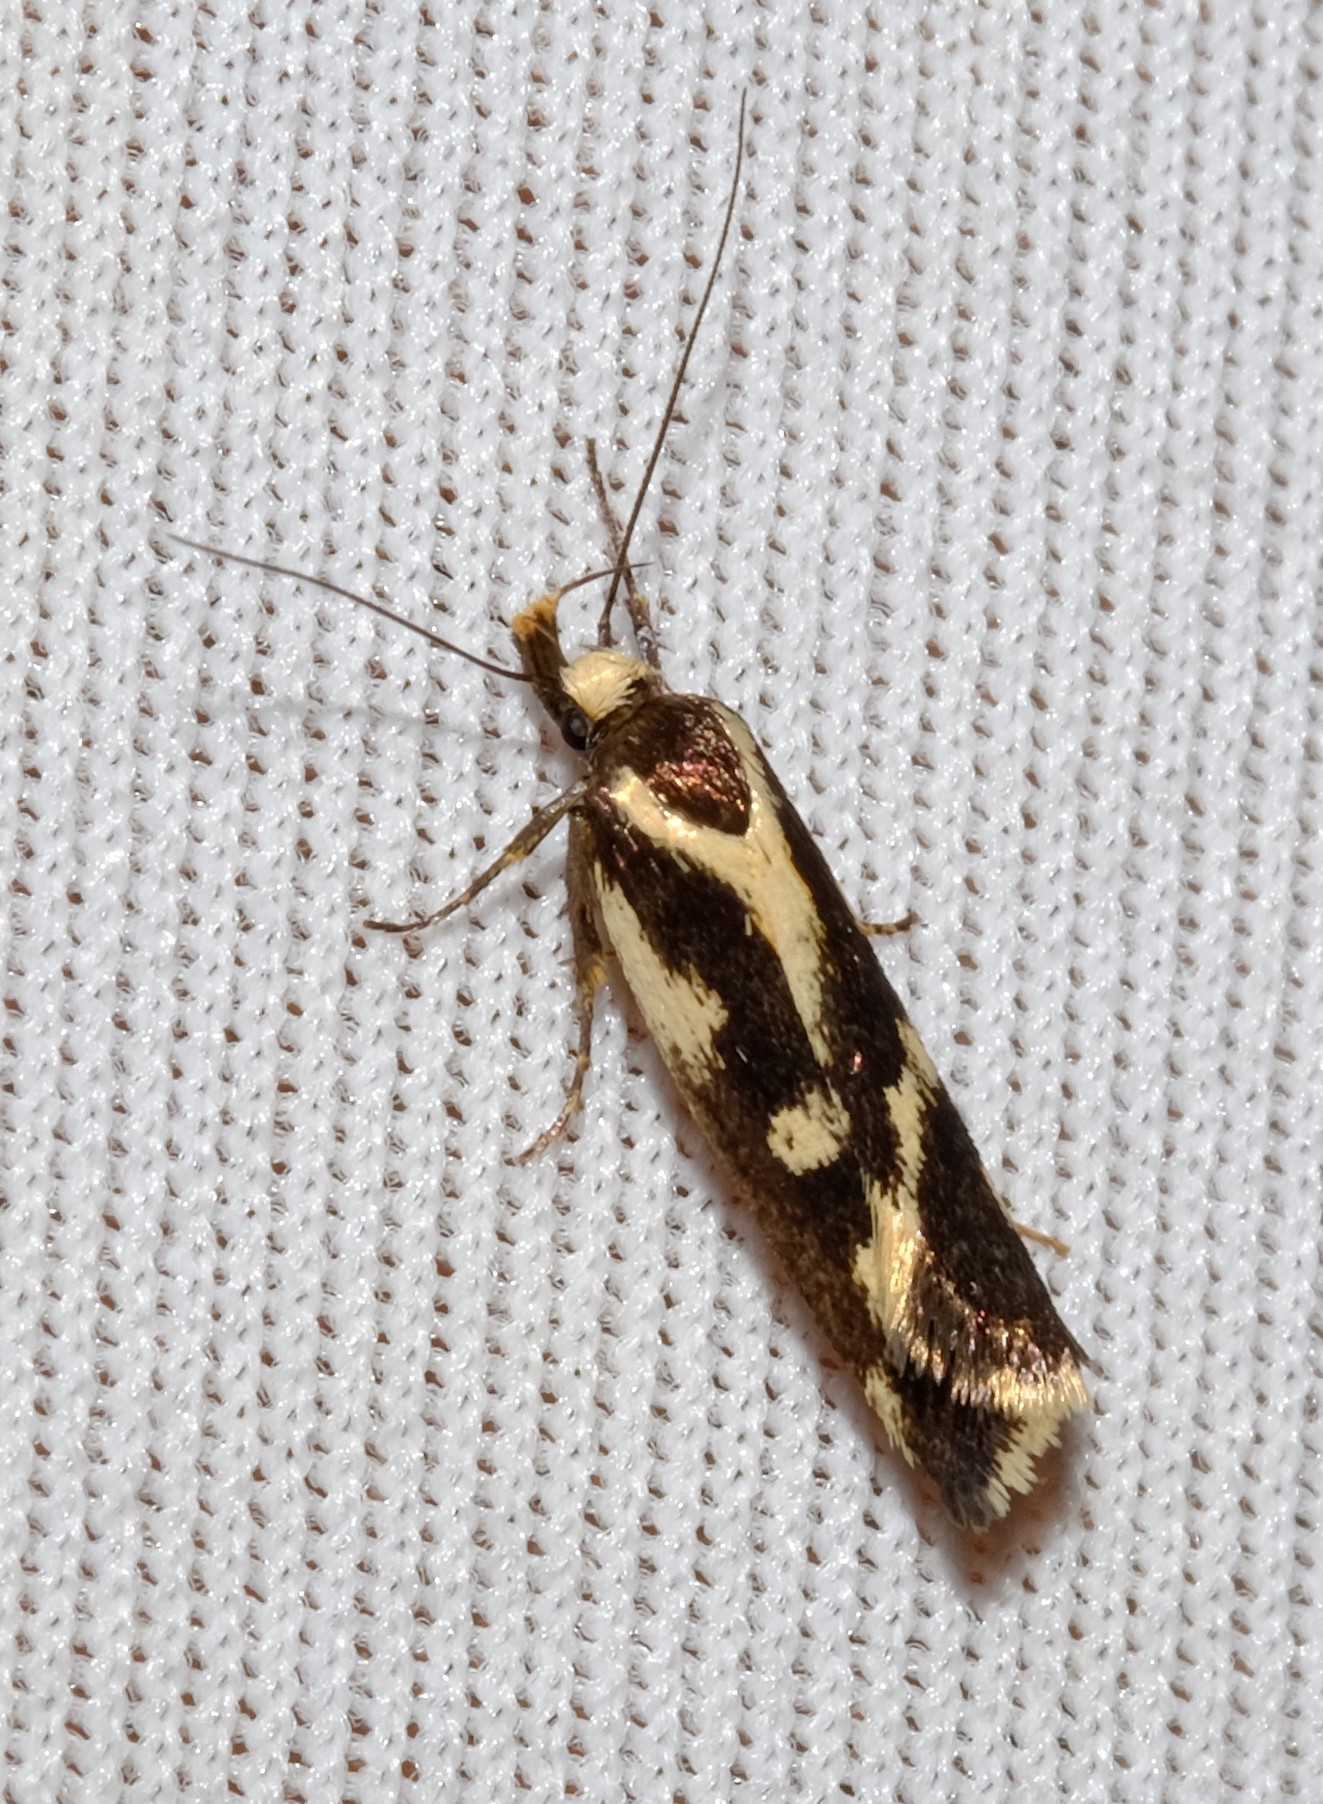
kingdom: Animalia
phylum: Arthropoda
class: Insecta
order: Lepidoptera
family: Oecophoridae
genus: Epithymema
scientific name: Epithymema incomposita
